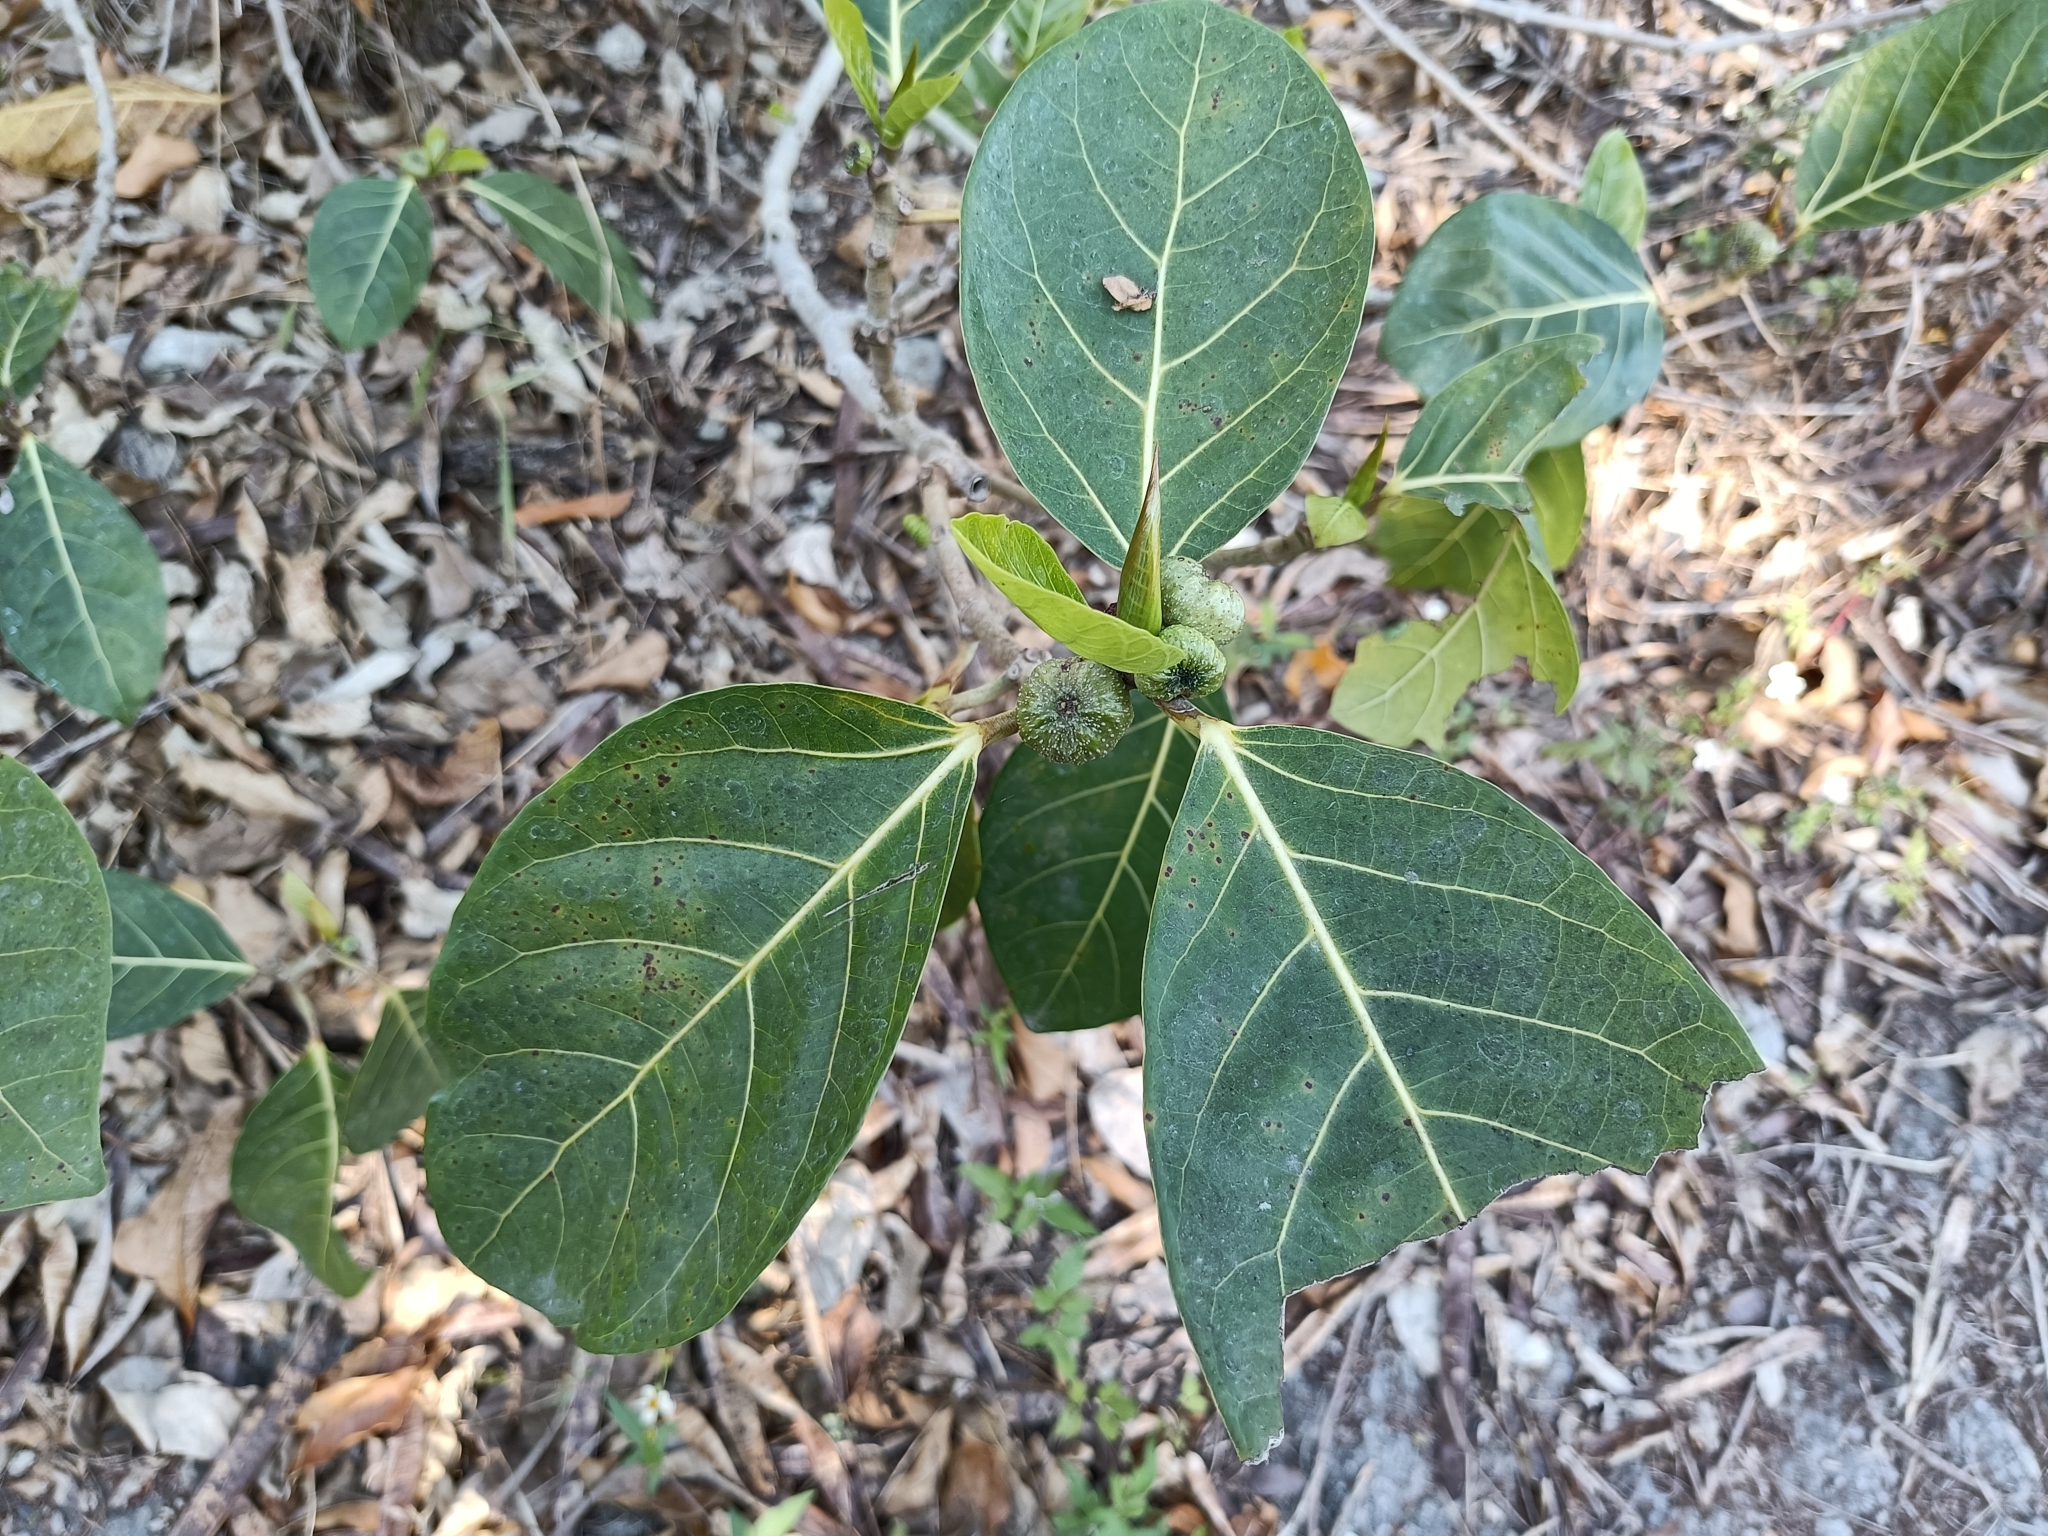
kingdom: Plantae
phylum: Tracheophyta
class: Magnoliopsida
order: Rosales
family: Moraceae
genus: Ficus
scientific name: Ficus septica
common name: Septic fig
